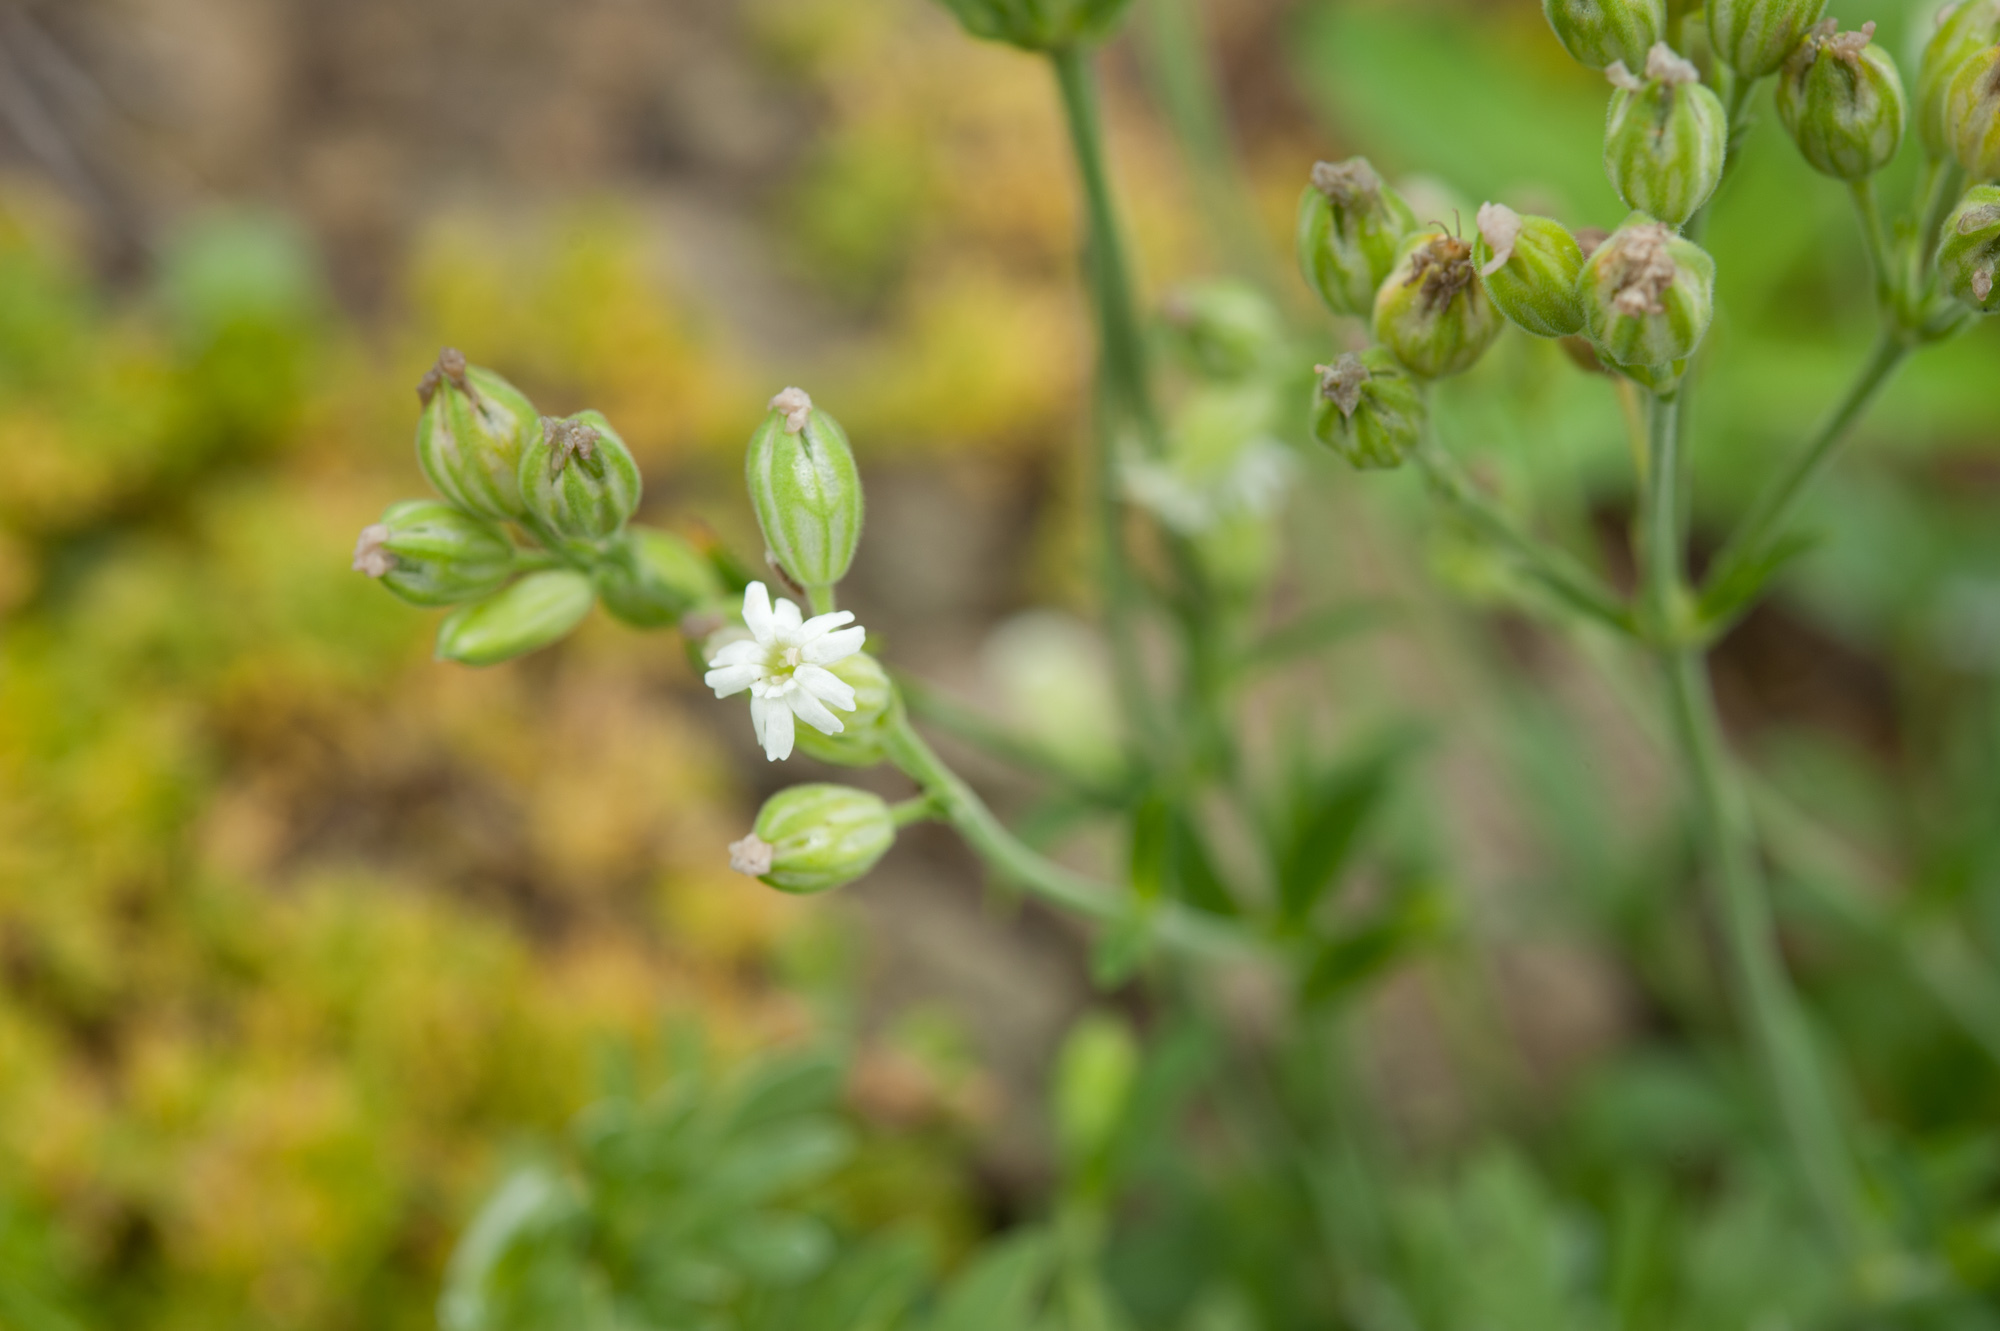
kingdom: Plantae
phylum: Tracheophyta
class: Magnoliopsida
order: Caryophyllales
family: Caryophyllaceae
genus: Silene
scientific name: Silene firma
